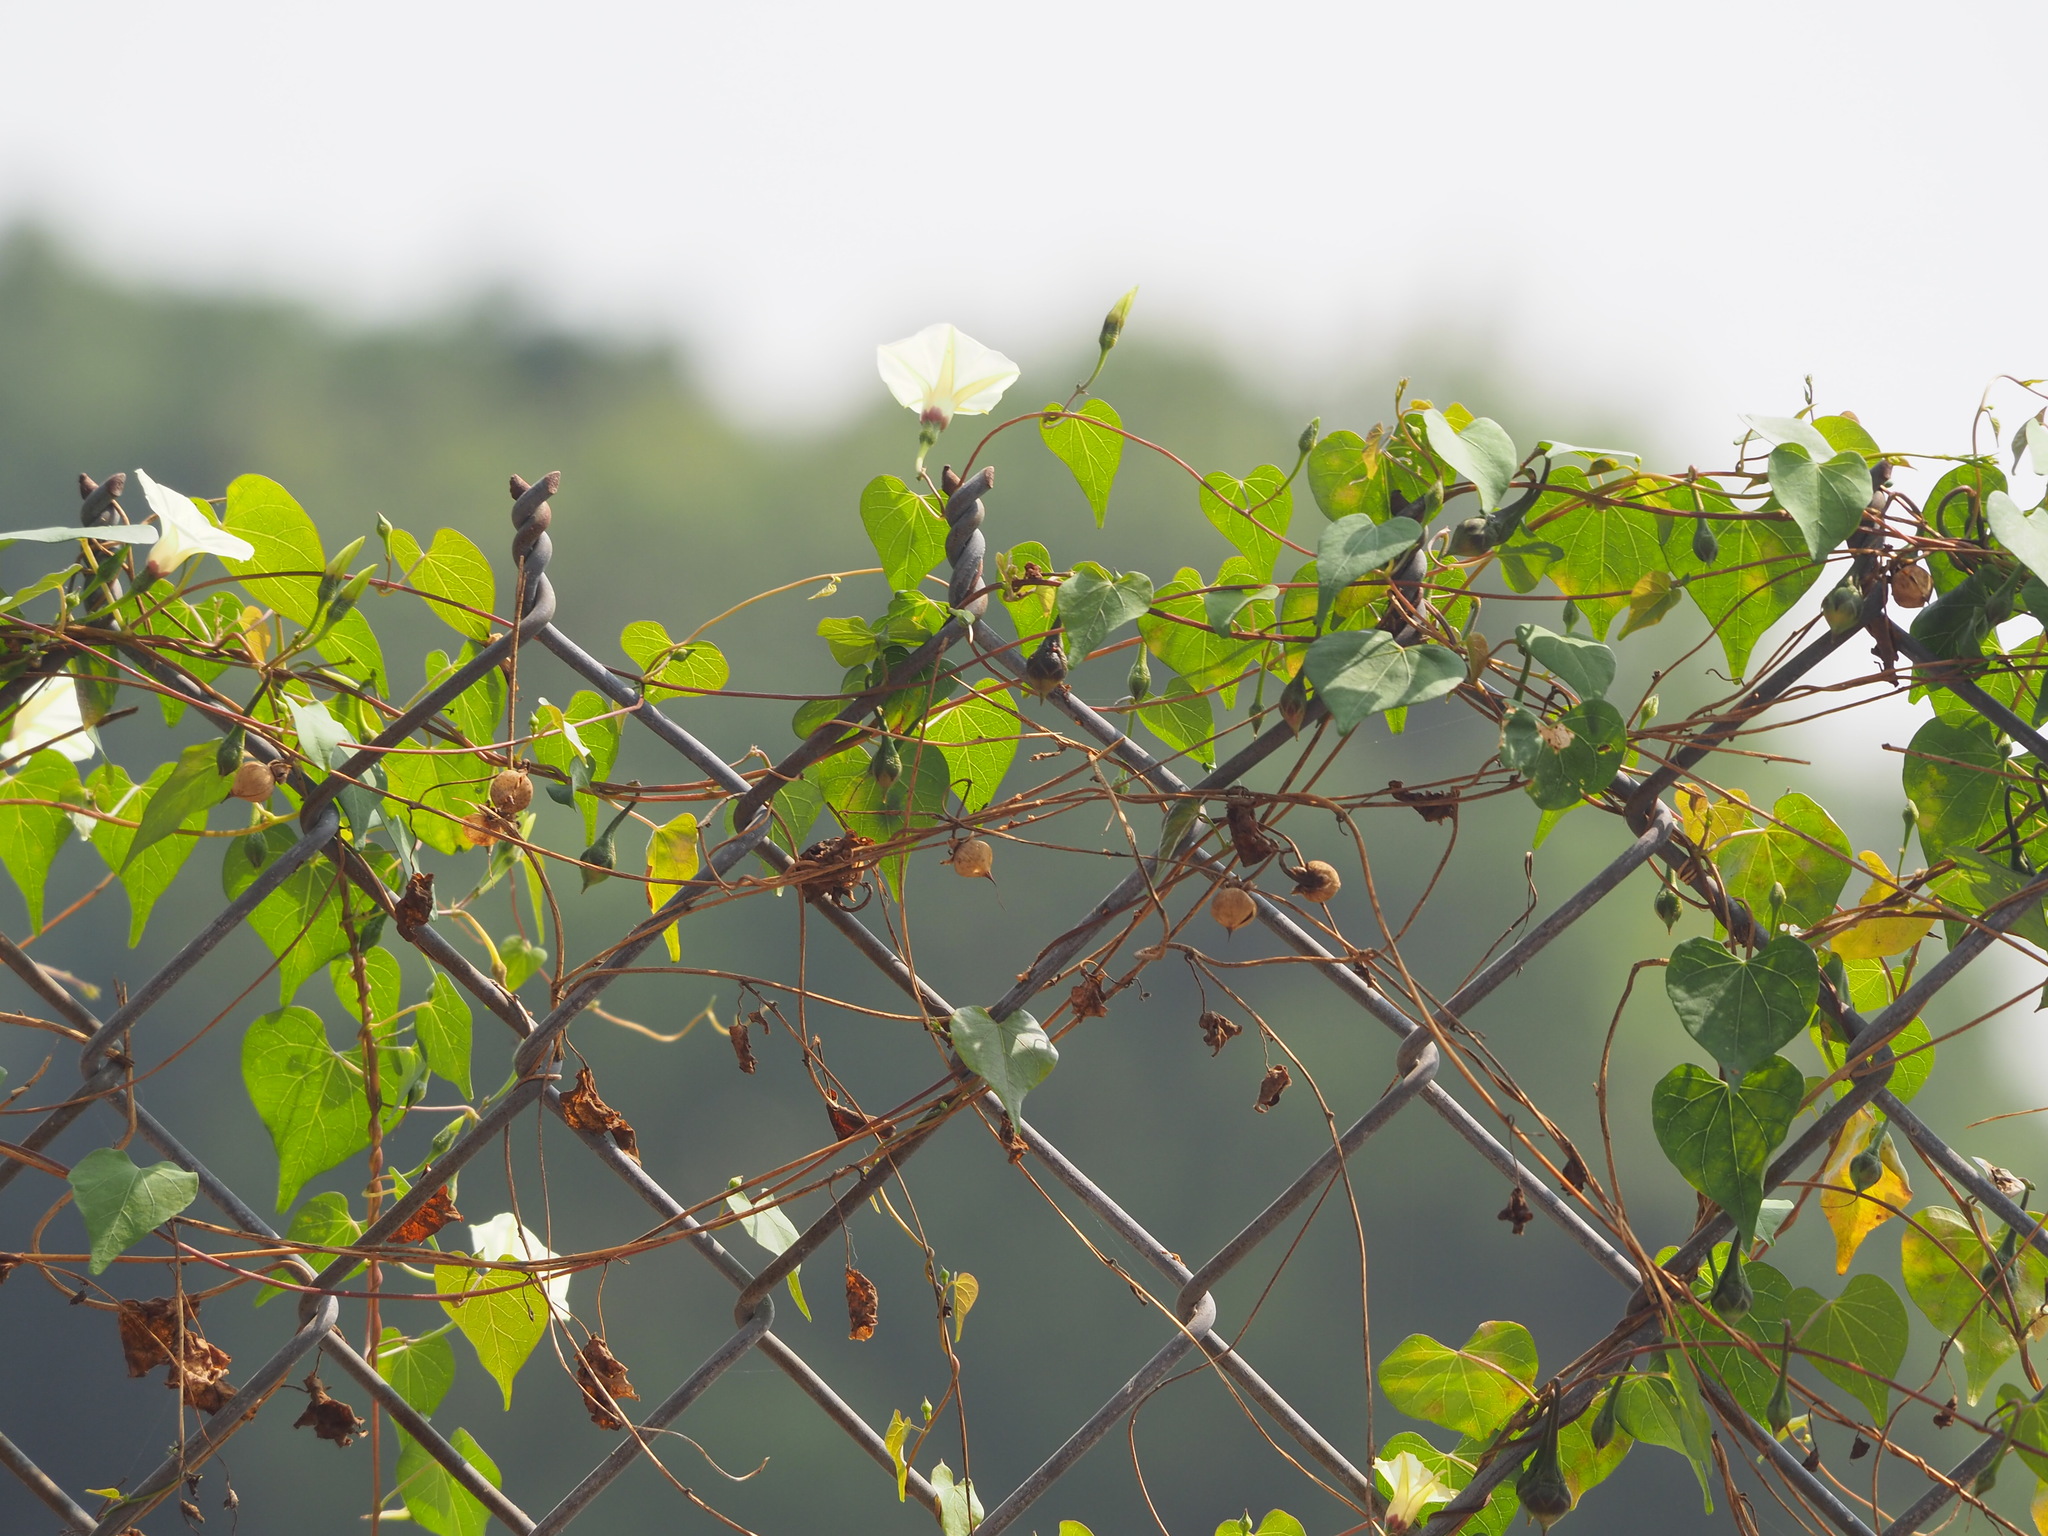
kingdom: Plantae
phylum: Tracheophyta
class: Magnoliopsida
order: Solanales
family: Convolvulaceae
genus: Ipomoea
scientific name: Ipomoea obscura
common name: Obscure morning-glory
